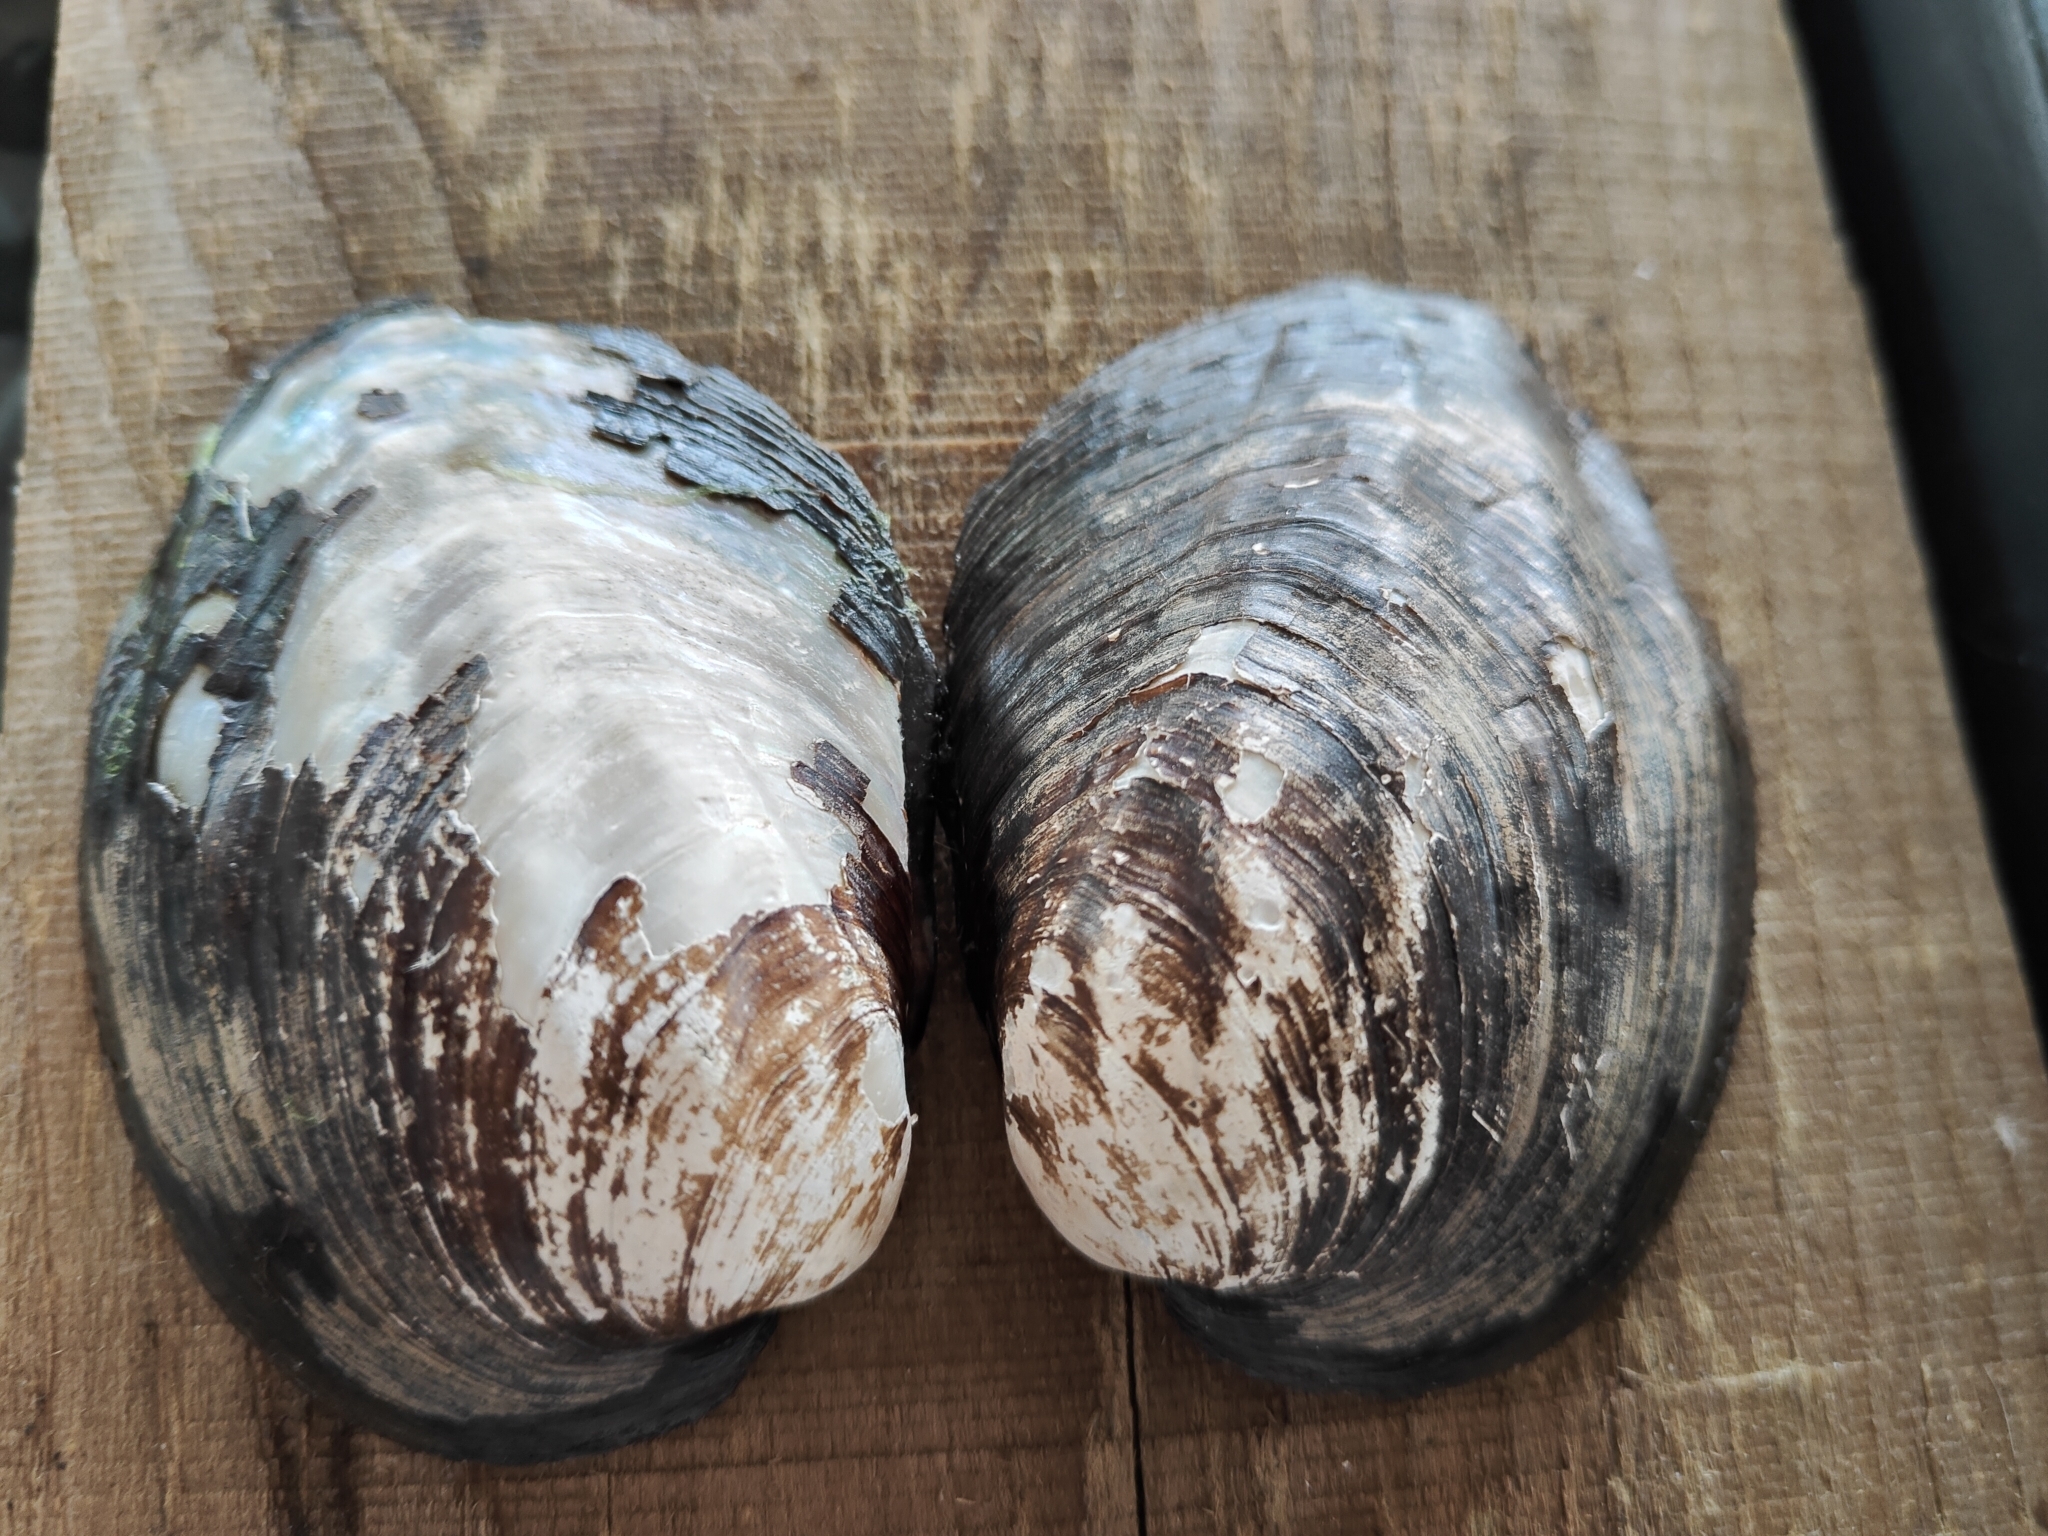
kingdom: Animalia
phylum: Mollusca
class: Bivalvia
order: Unionida
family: Unionidae
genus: Amblema
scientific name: Amblema plicata
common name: Threeridge
